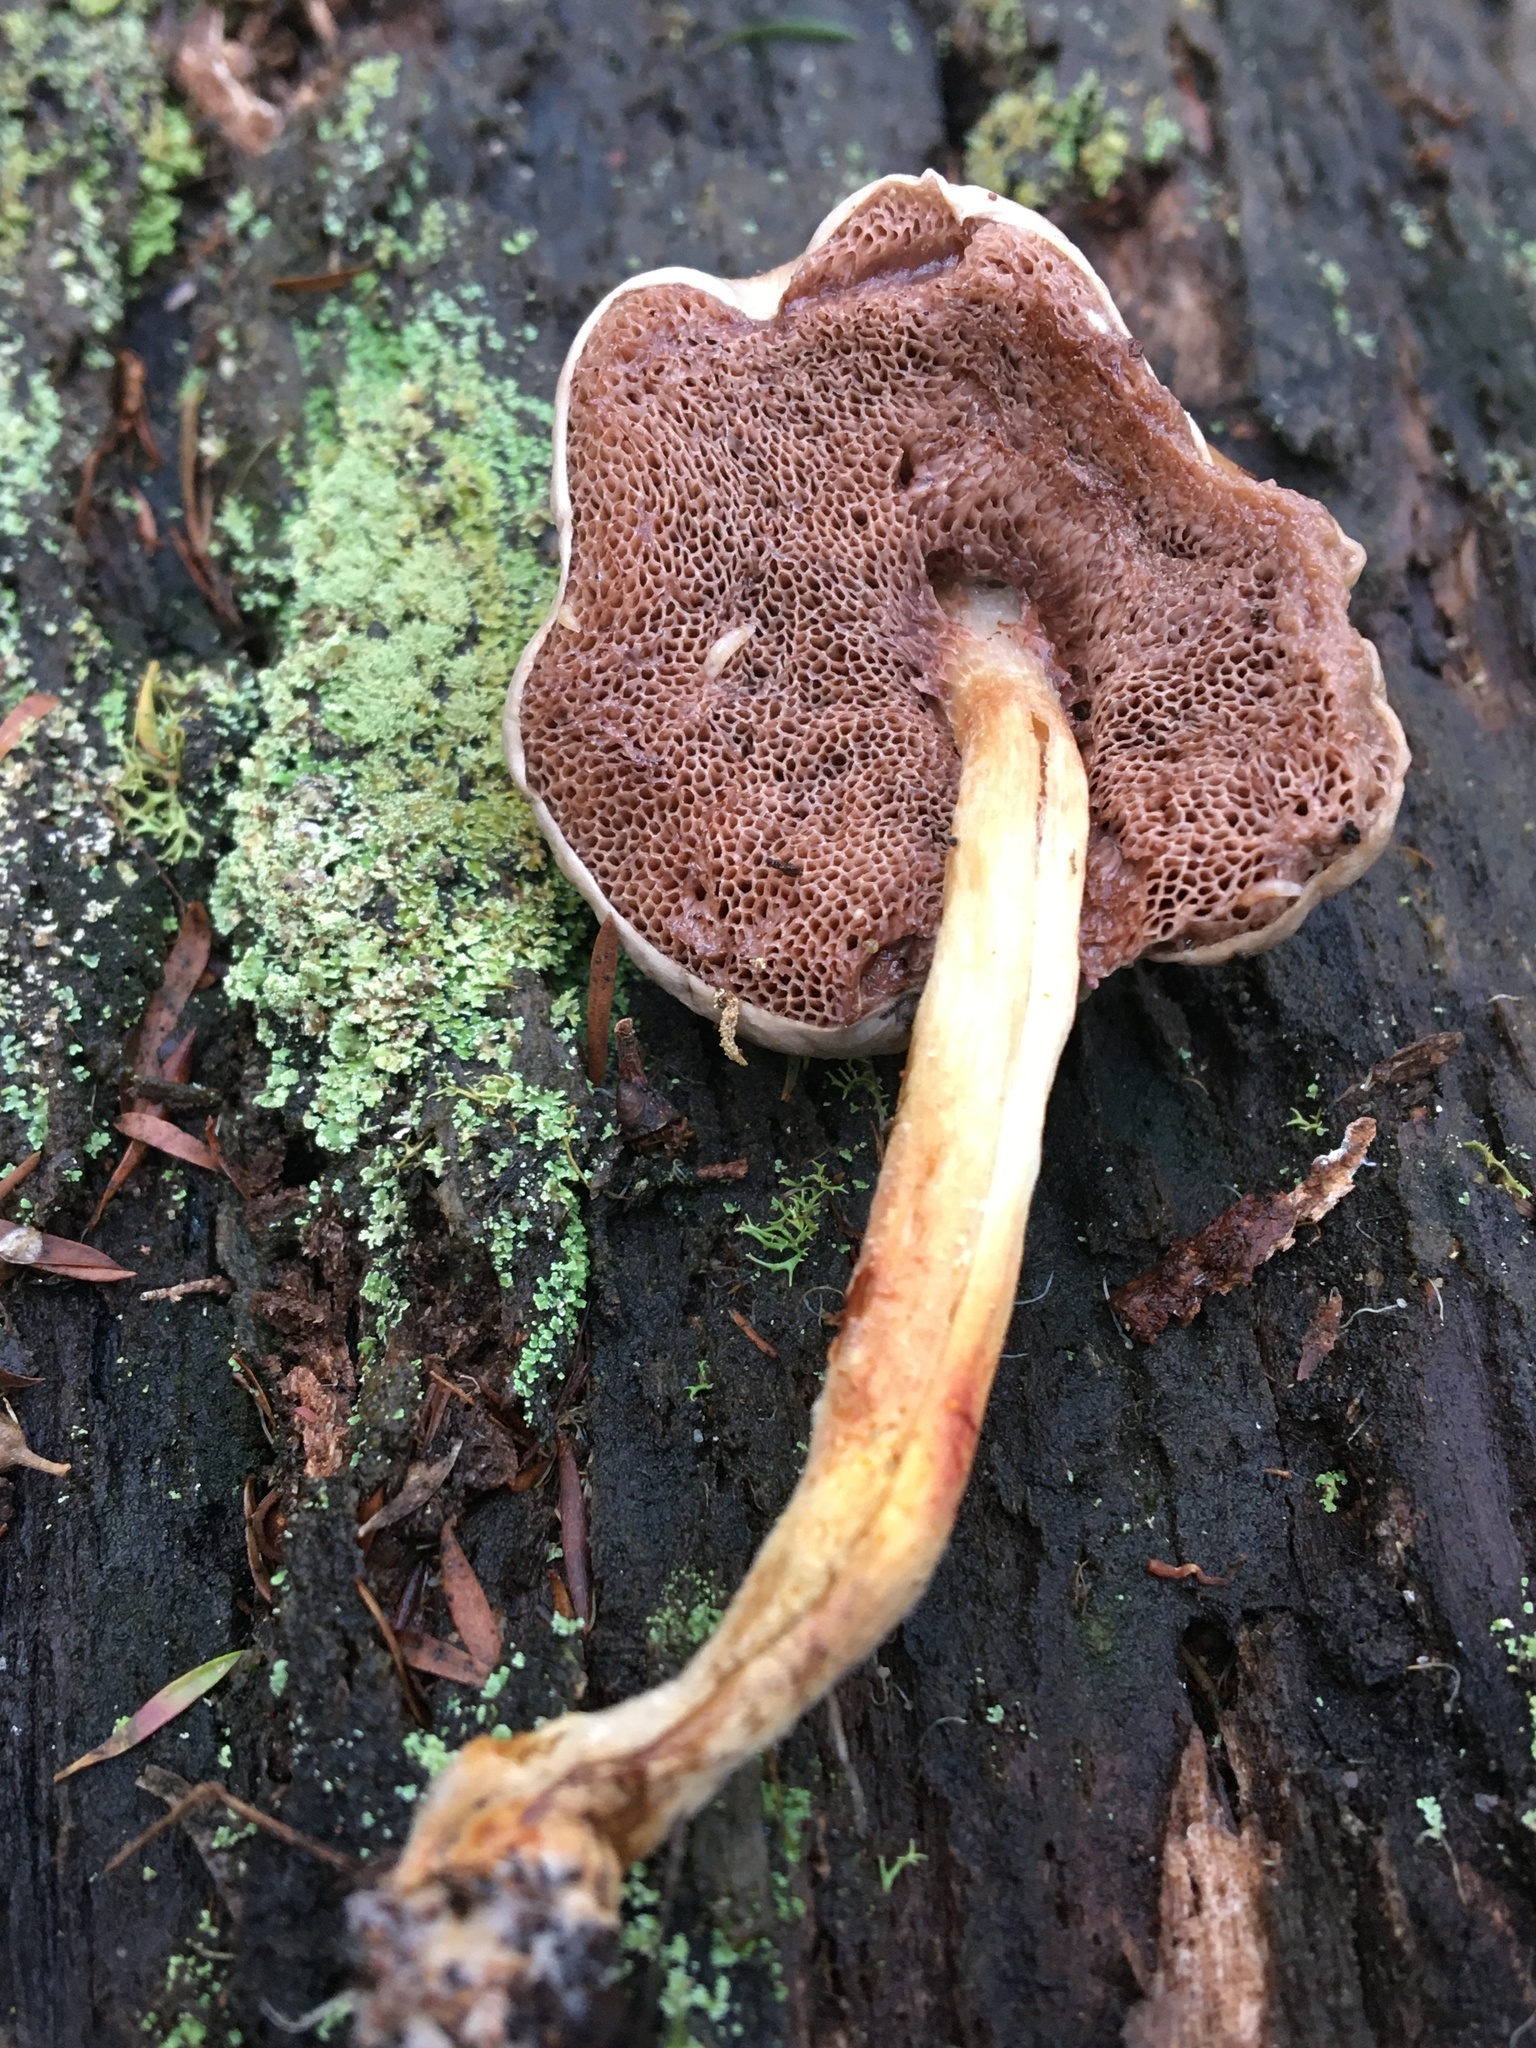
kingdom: Fungi
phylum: Basidiomycota
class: Agaricomycetes
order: Boletales
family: Boletaceae
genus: Fistulinella
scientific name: Fistulinella mollis
